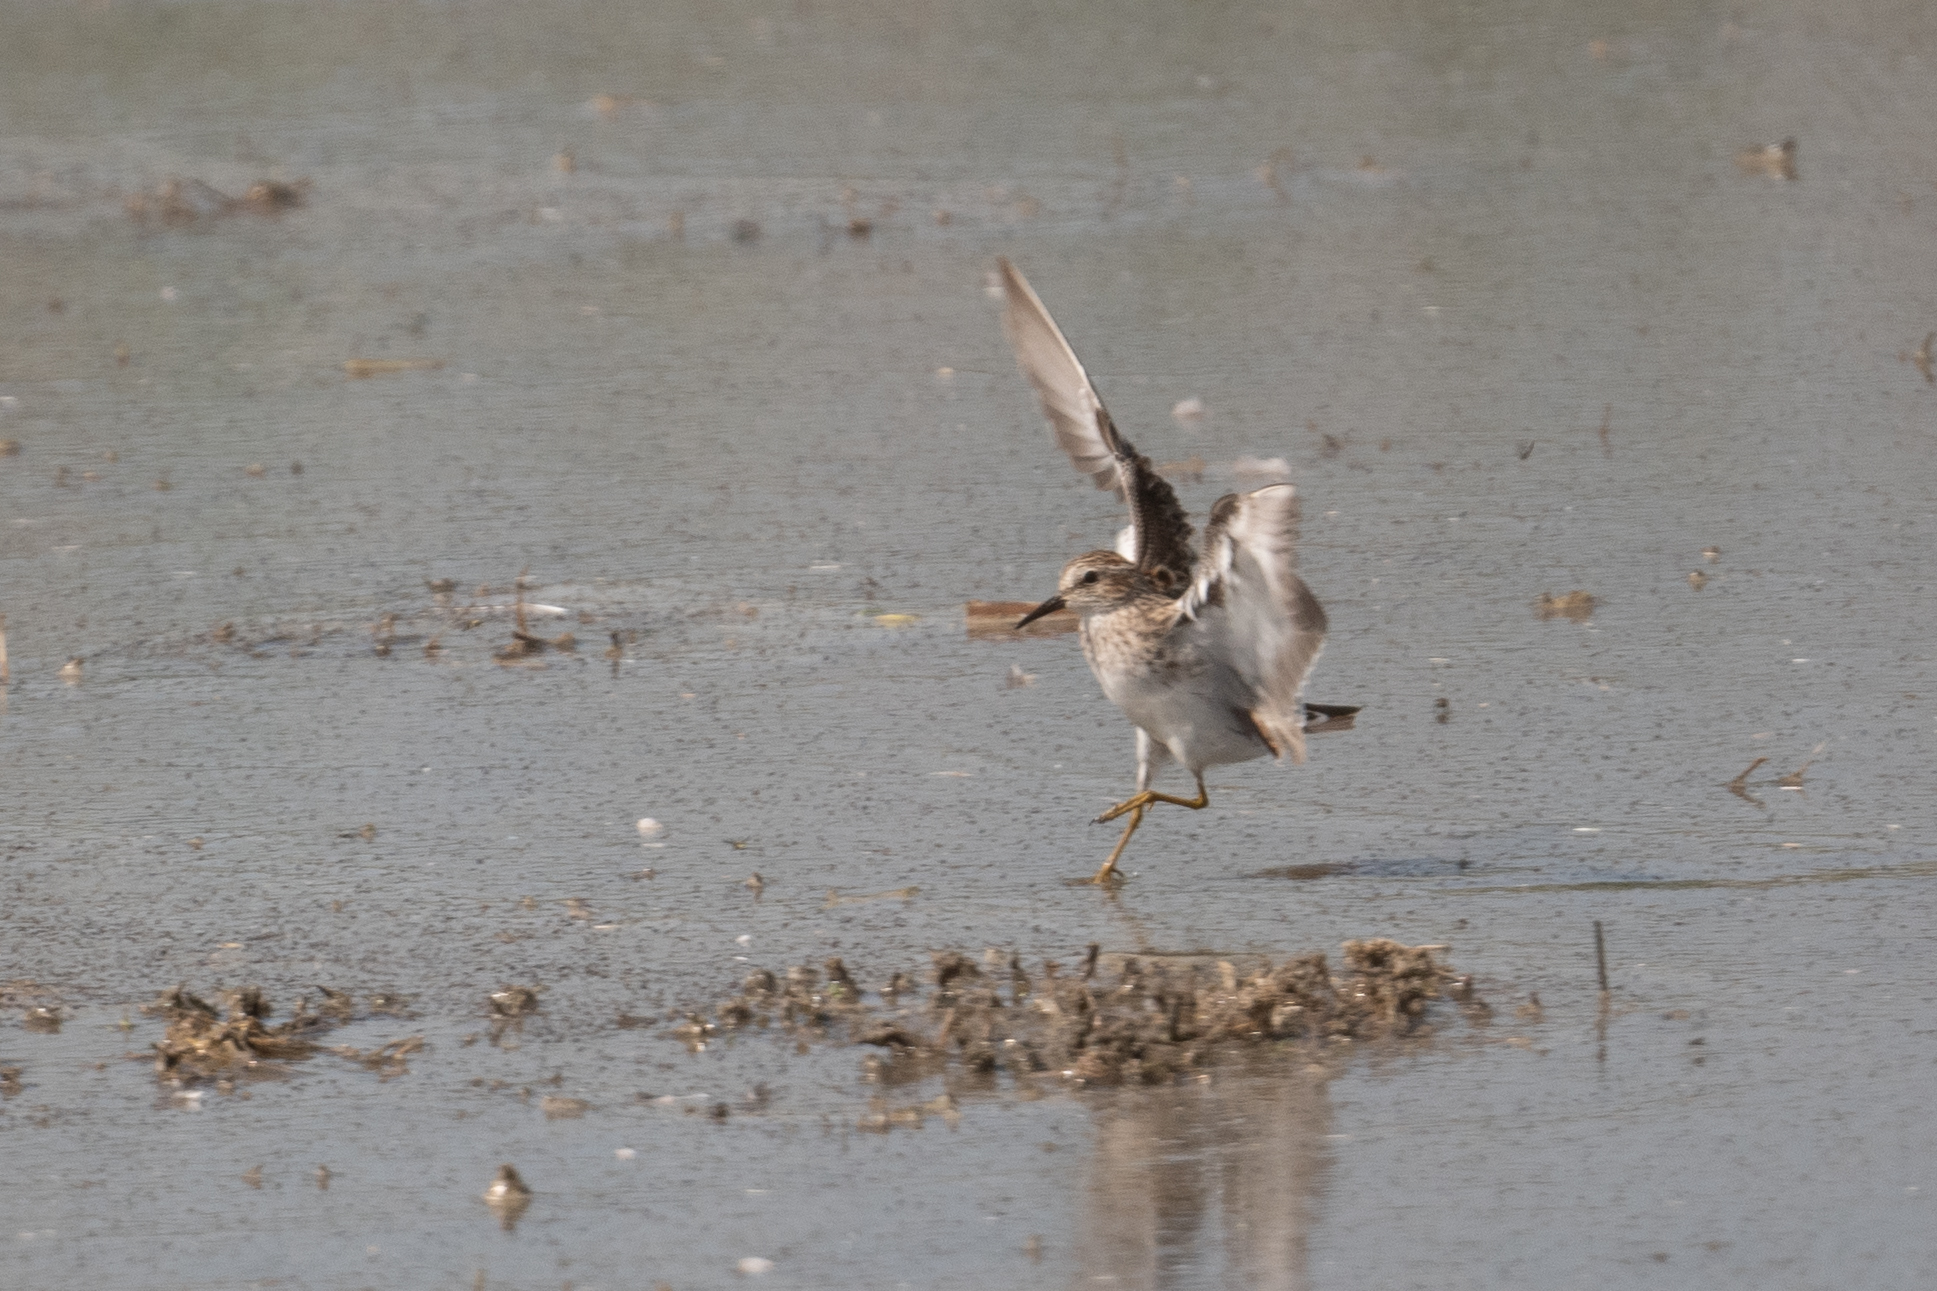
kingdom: Animalia
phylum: Chordata
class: Aves
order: Charadriiformes
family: Scolopacidae
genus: Calidris
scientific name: Calidris minutilla
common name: Least sandpiper
